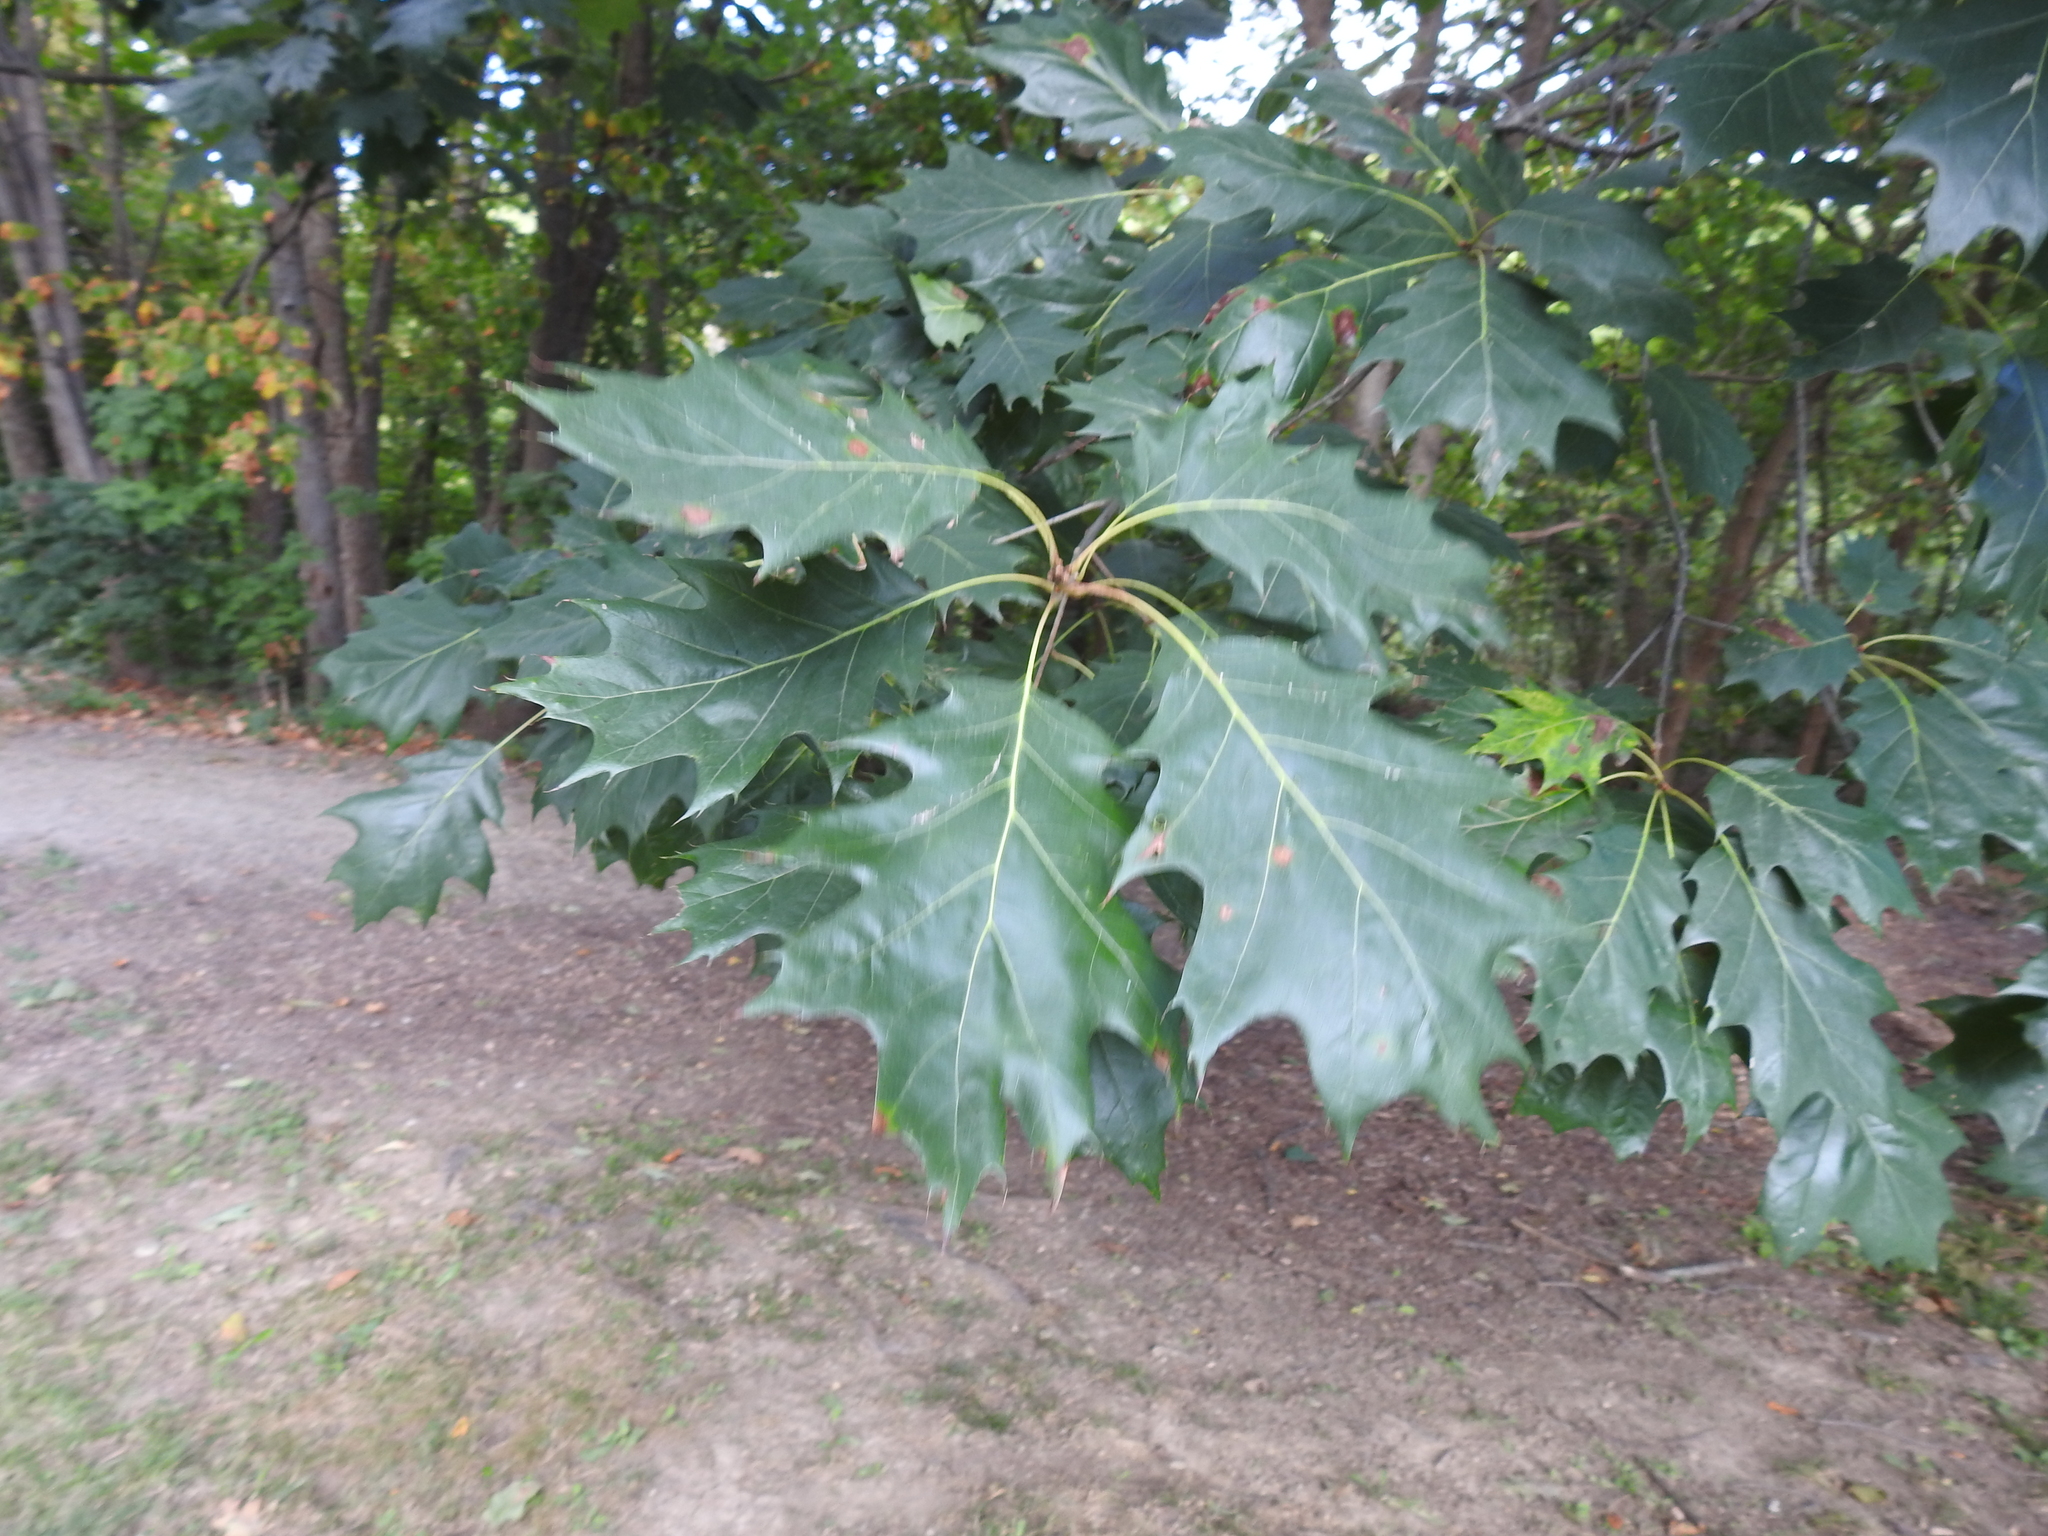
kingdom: Plantae
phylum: Tracheophyta
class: Magnoliopsida
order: Fagales
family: Fagaceae
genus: Quercus
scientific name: Quercus rubra
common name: Red oak
